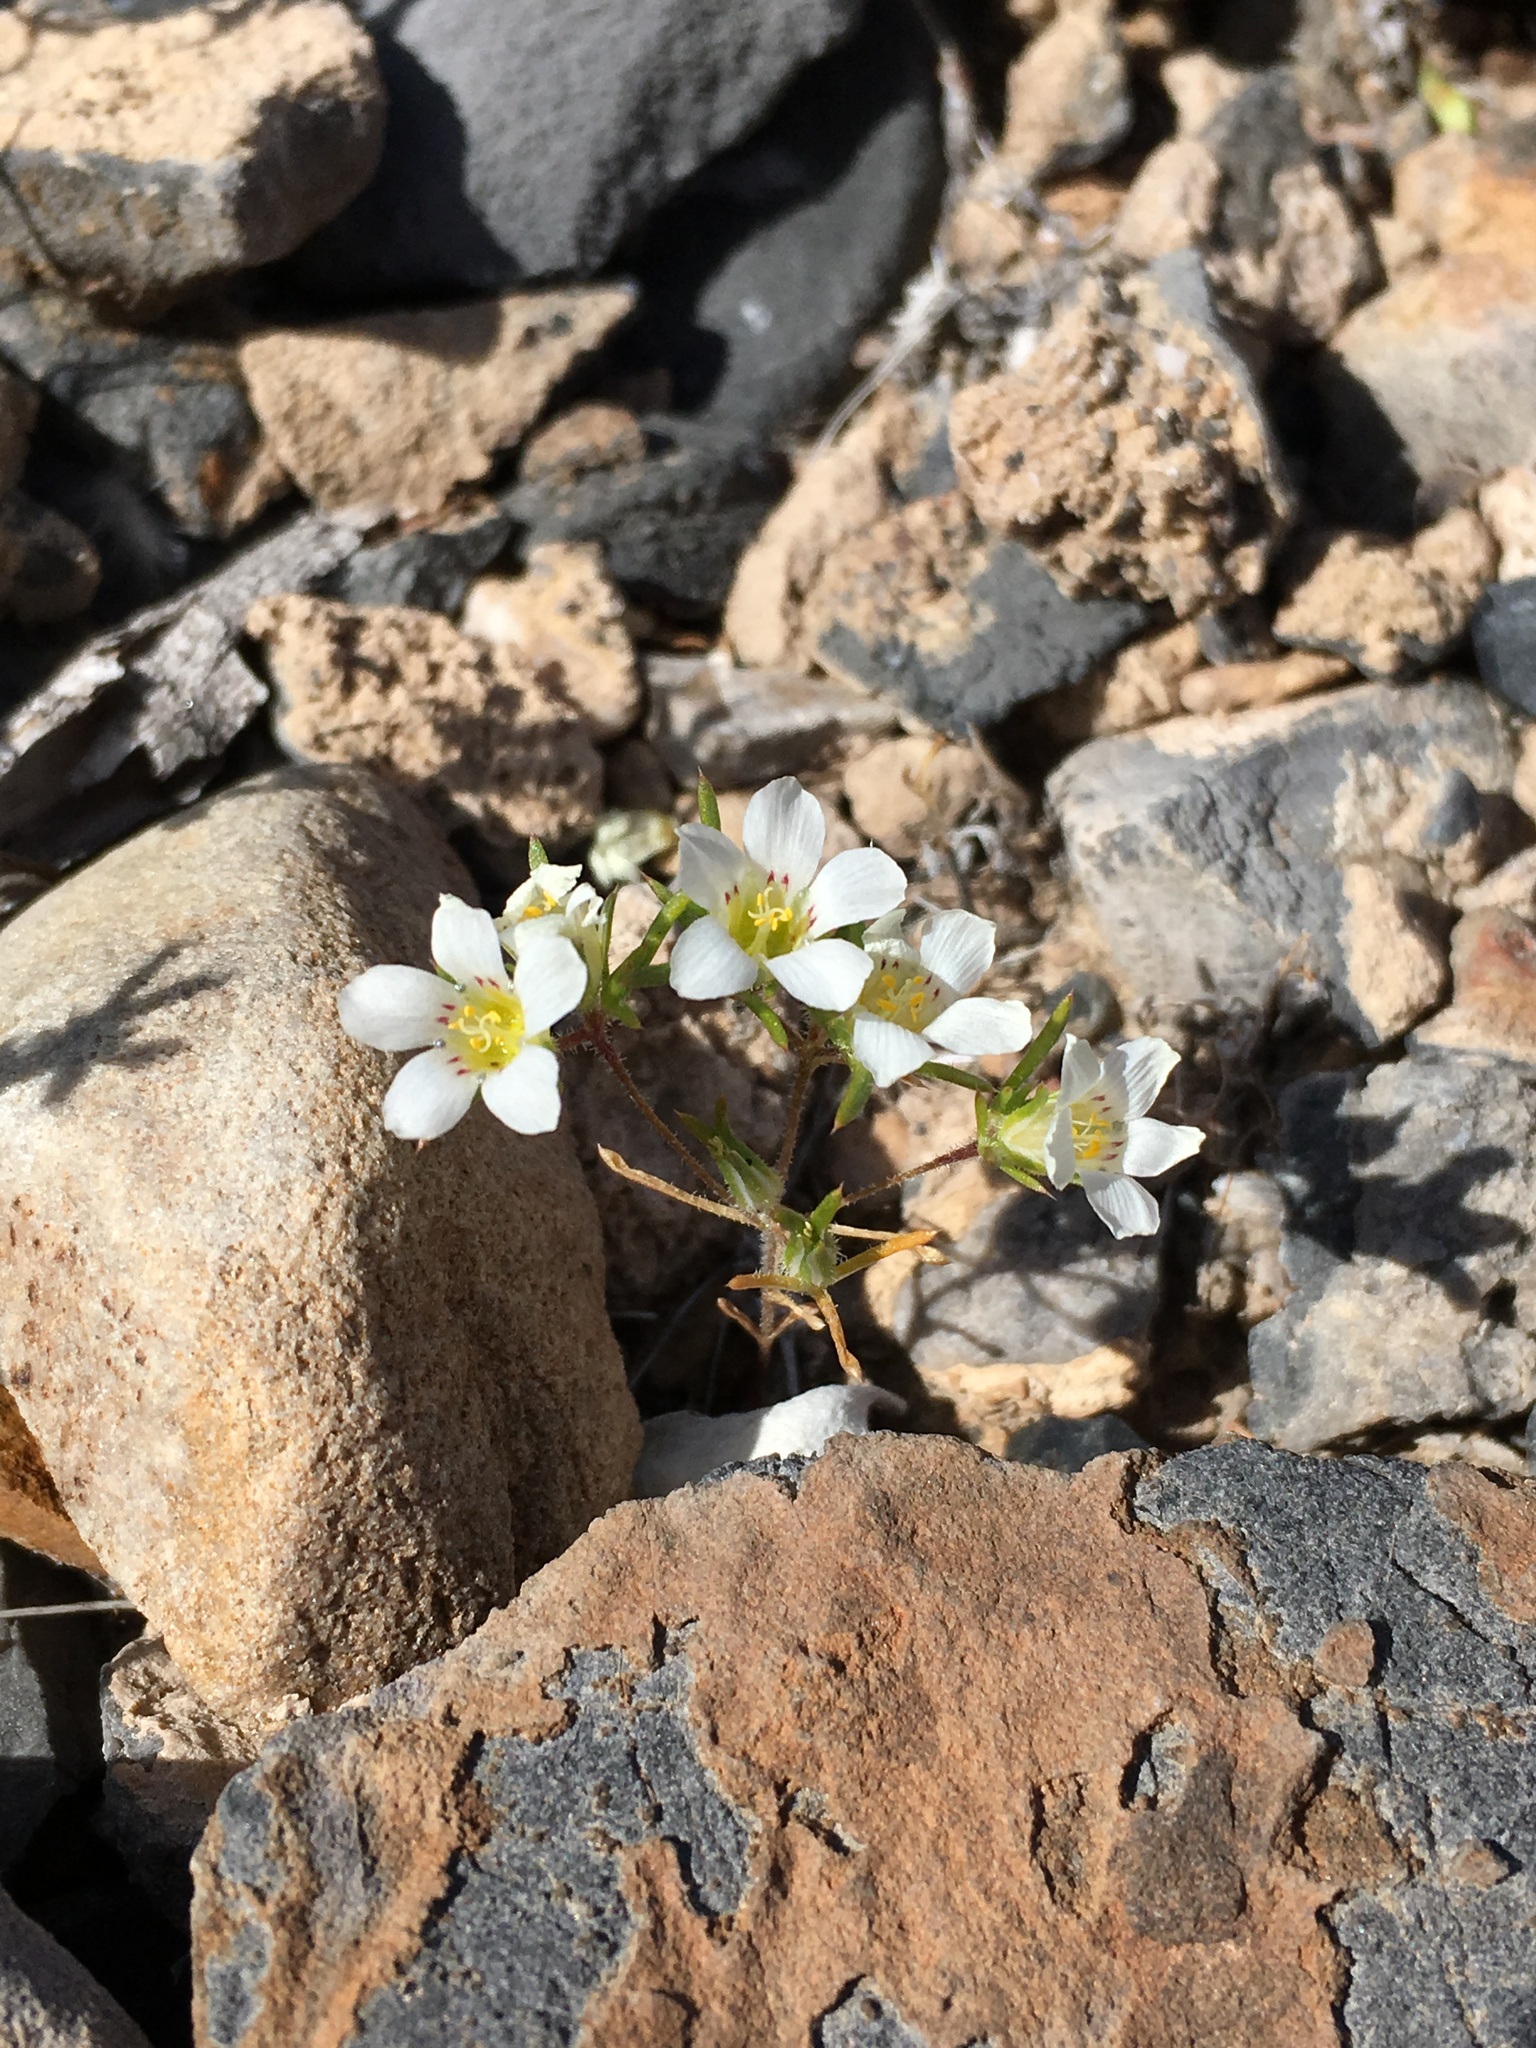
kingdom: Plantae
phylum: Tracheophyta
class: Magnoliopsida
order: Ericales
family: Polemoniaceae
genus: Linanthus
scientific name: Linanthus demissus
